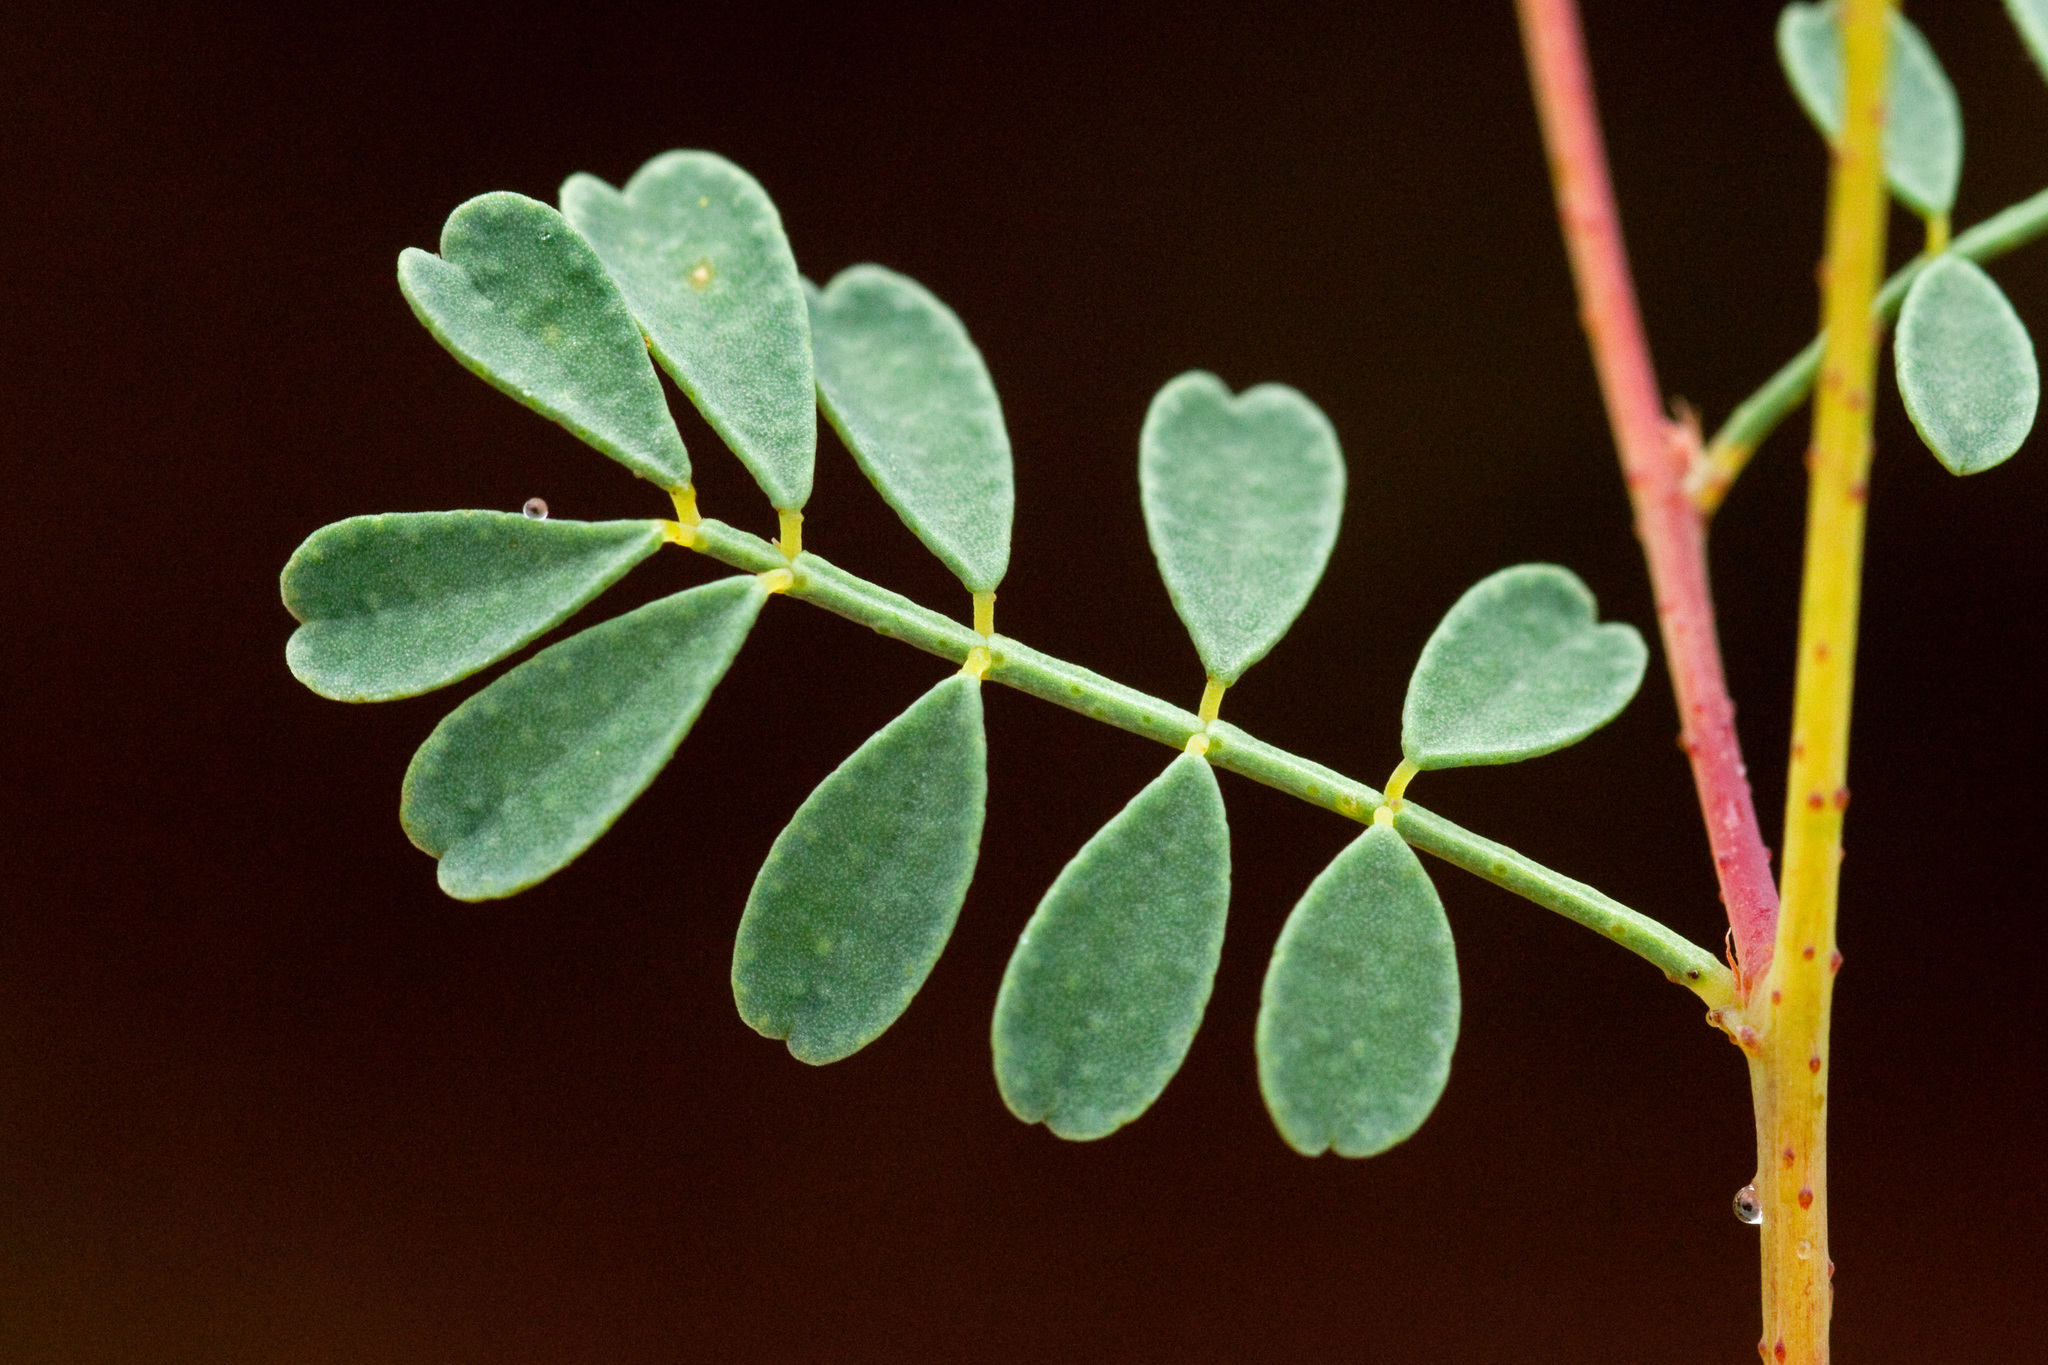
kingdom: Plantae
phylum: Tracheophyta
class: Magnoliopsida
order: Fabales
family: Fabaceae
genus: Dalea
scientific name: Dalea frutescens
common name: Black dalea
